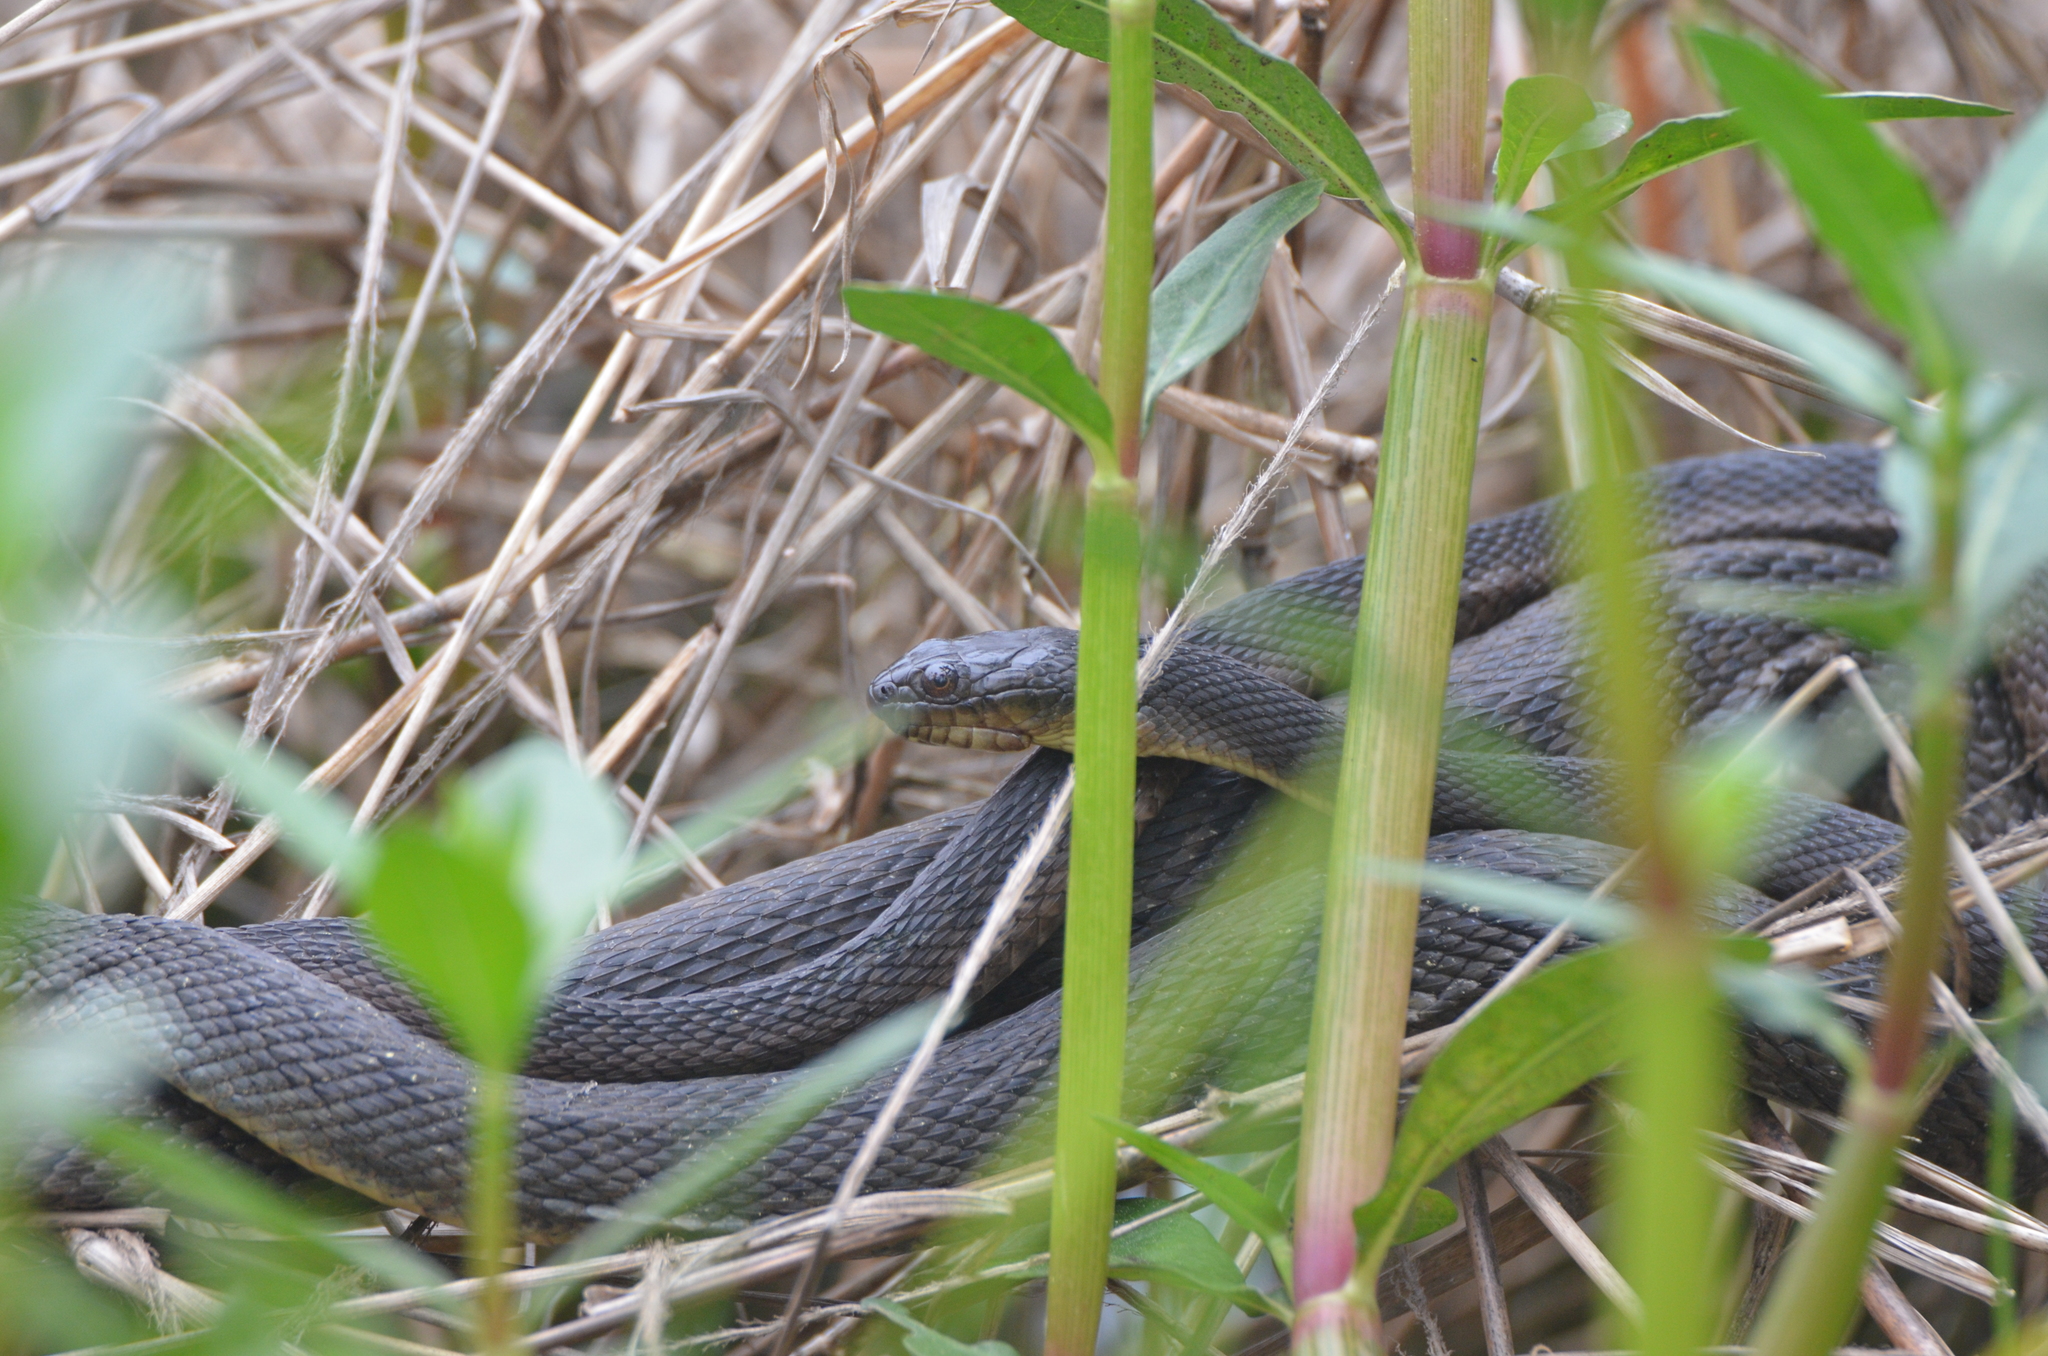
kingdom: Animalia
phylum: Chordata
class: Squamata
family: Colubridae
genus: Nerodia
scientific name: Nerodia cyclopion
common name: Mississippi green water snake
